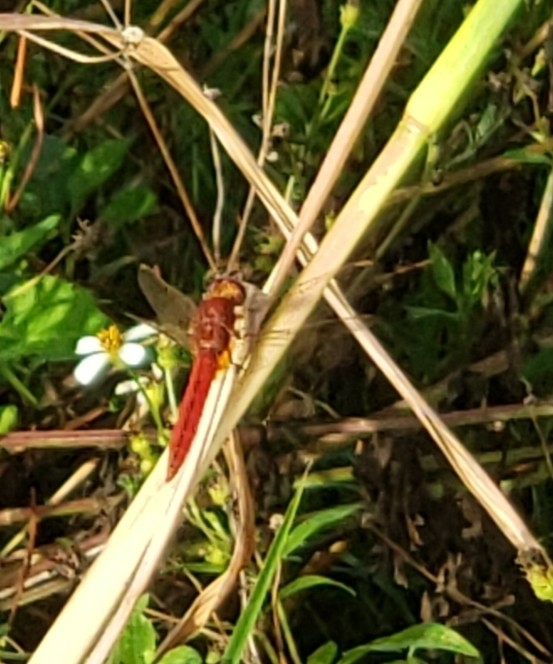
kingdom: Animalia
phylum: Arthropoda
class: Insecta
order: Odonata
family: Libellulidae
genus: Crocothemis
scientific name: Crocothemis servilia
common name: Scarlet skimmer
